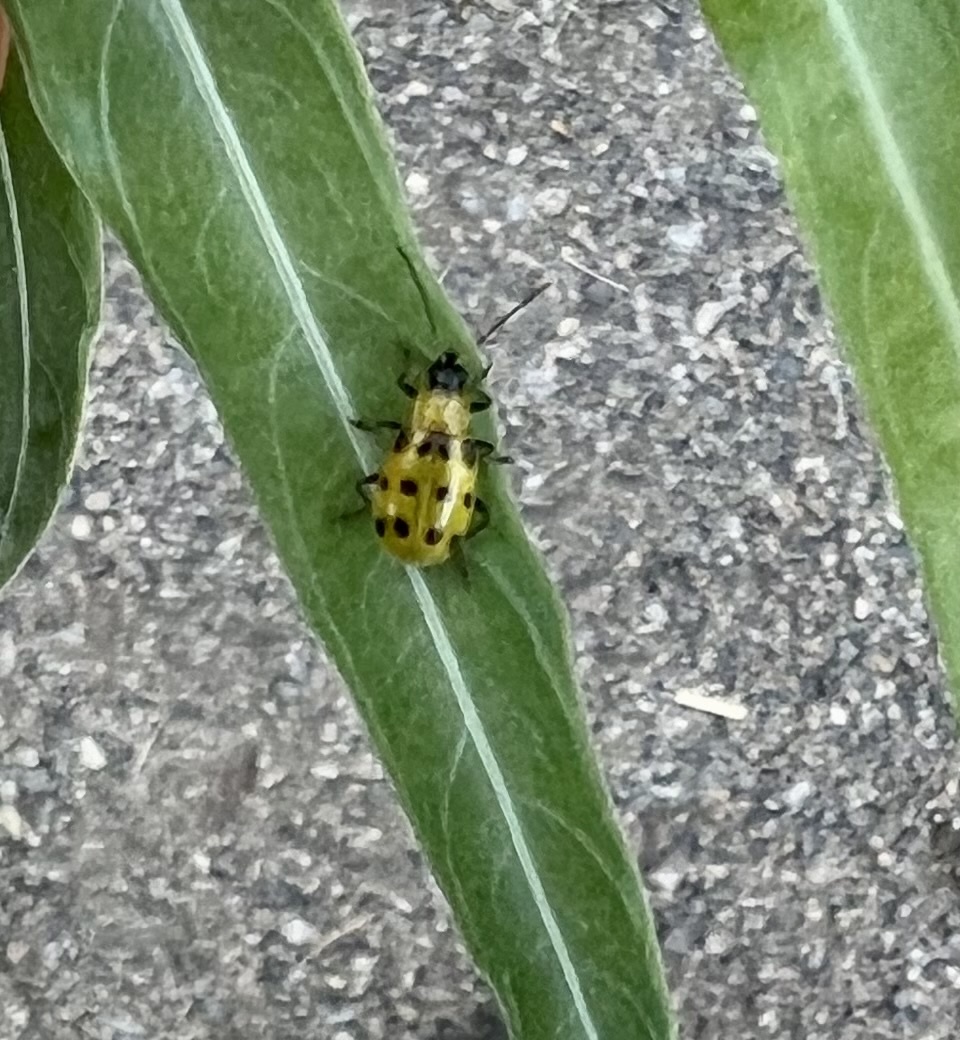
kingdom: Animalia
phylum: Arthropoda
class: Insecta
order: Coleoptera
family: Chrysomelidae
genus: Diabrotica
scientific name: Diabrotica undecimpunctata
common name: Spotted cucumber beetle
